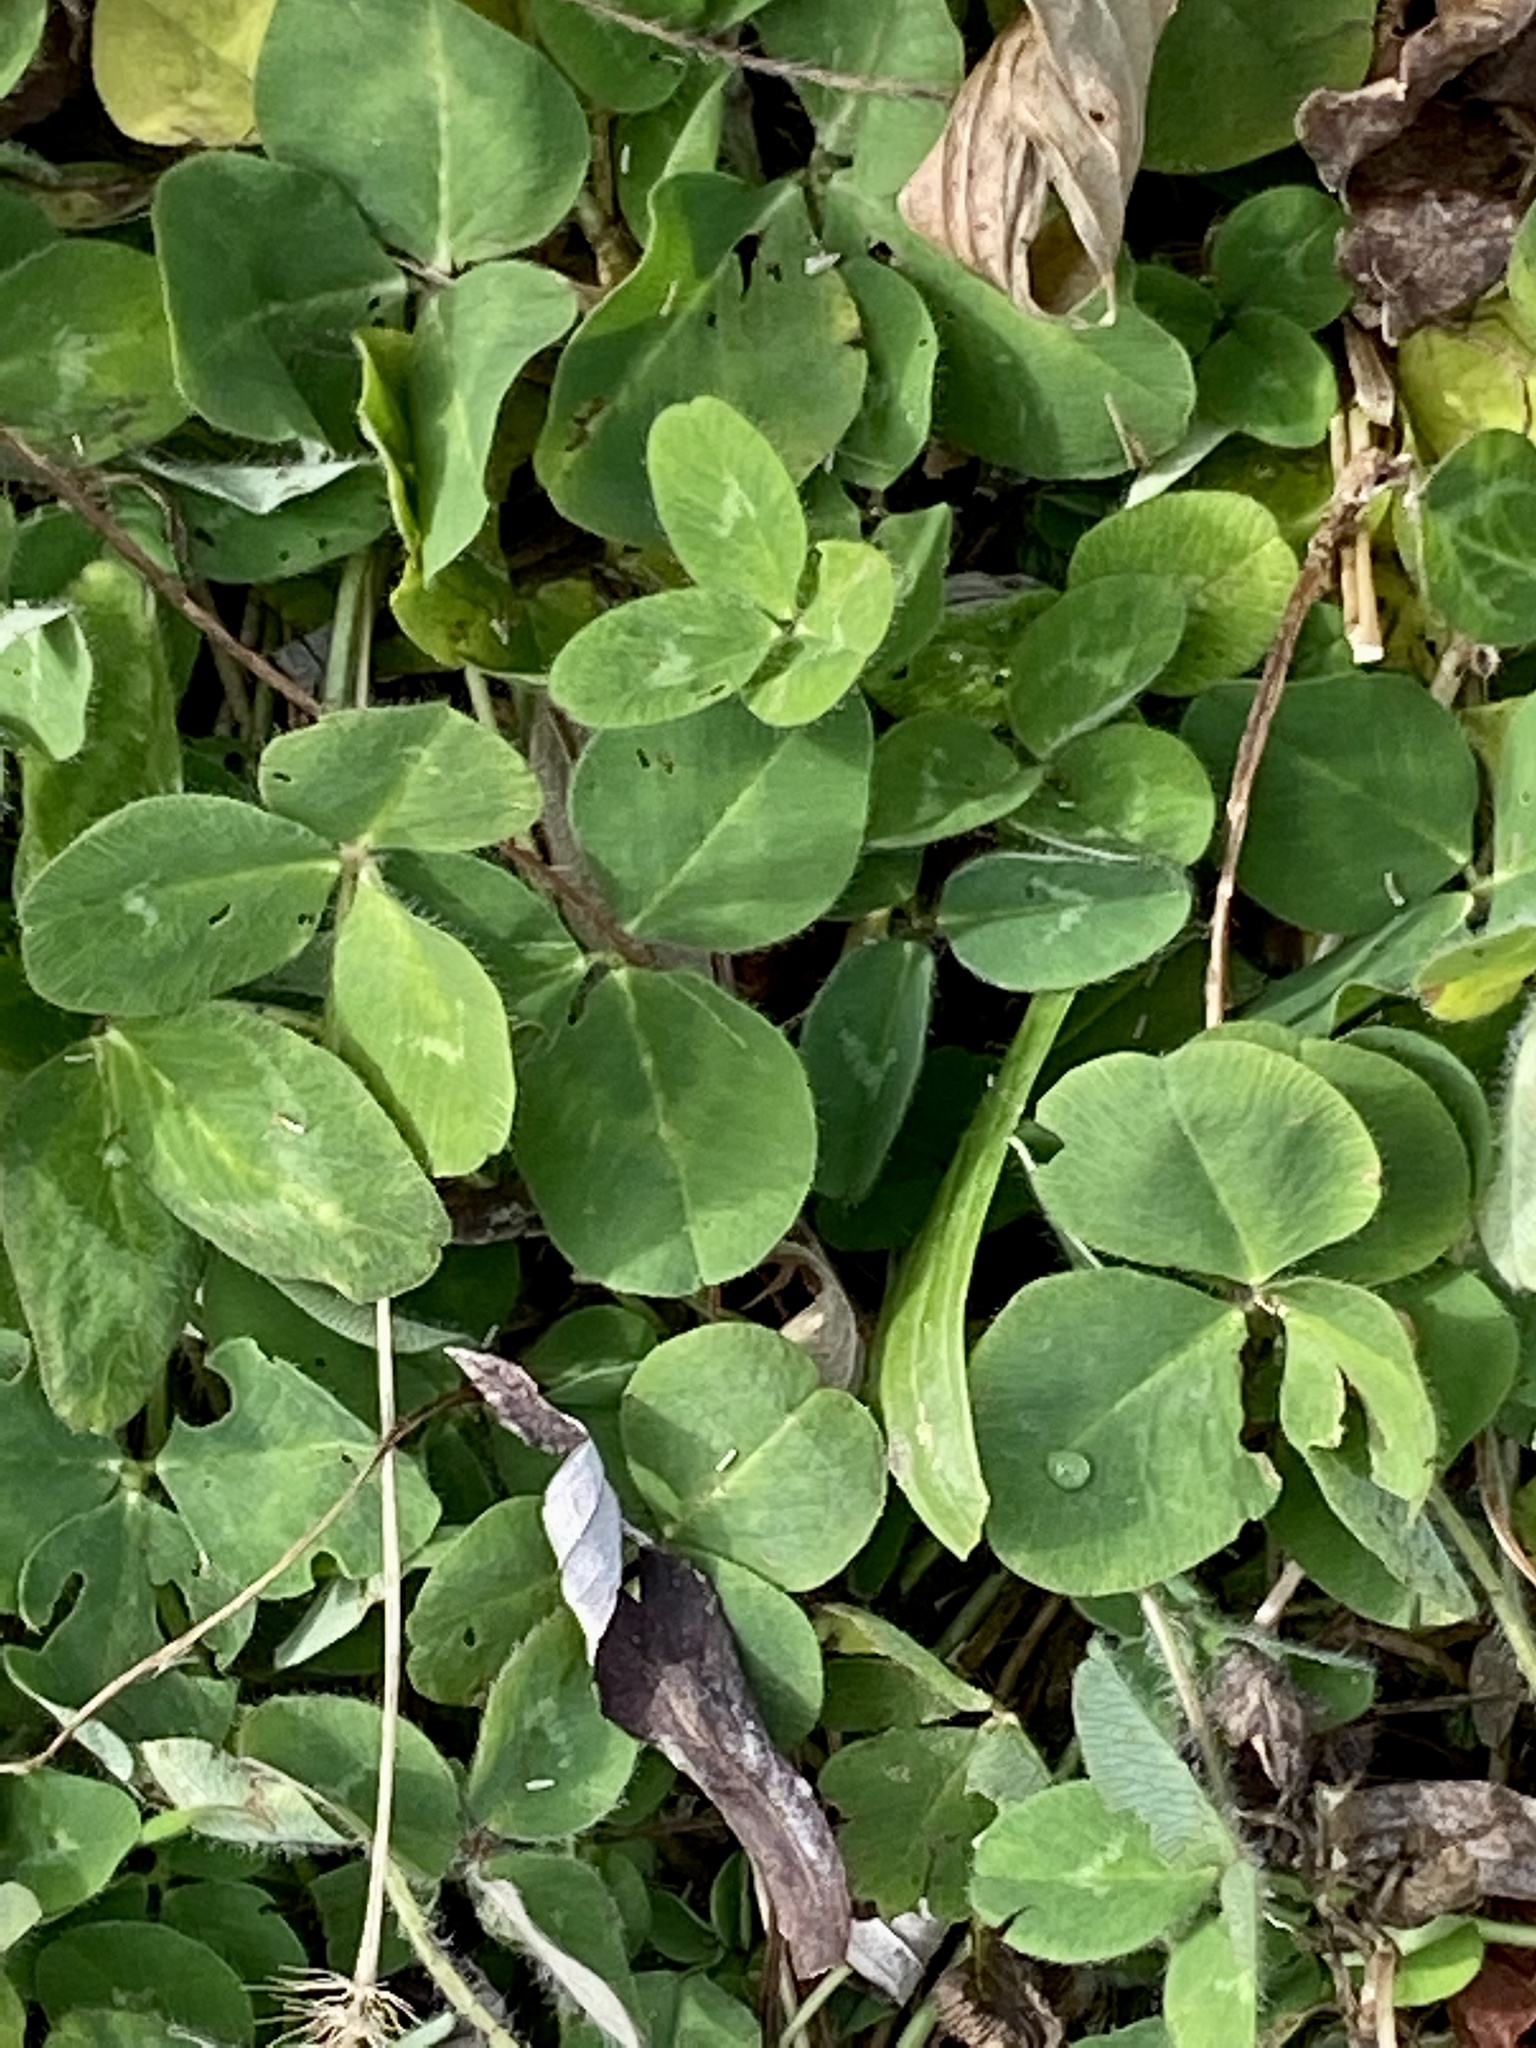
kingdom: Plantae
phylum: Tracheophyta
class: Magnoliopsida
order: Fabales
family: Fabaceae
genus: Trifolium
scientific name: Trifolium pratense
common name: Red clover
